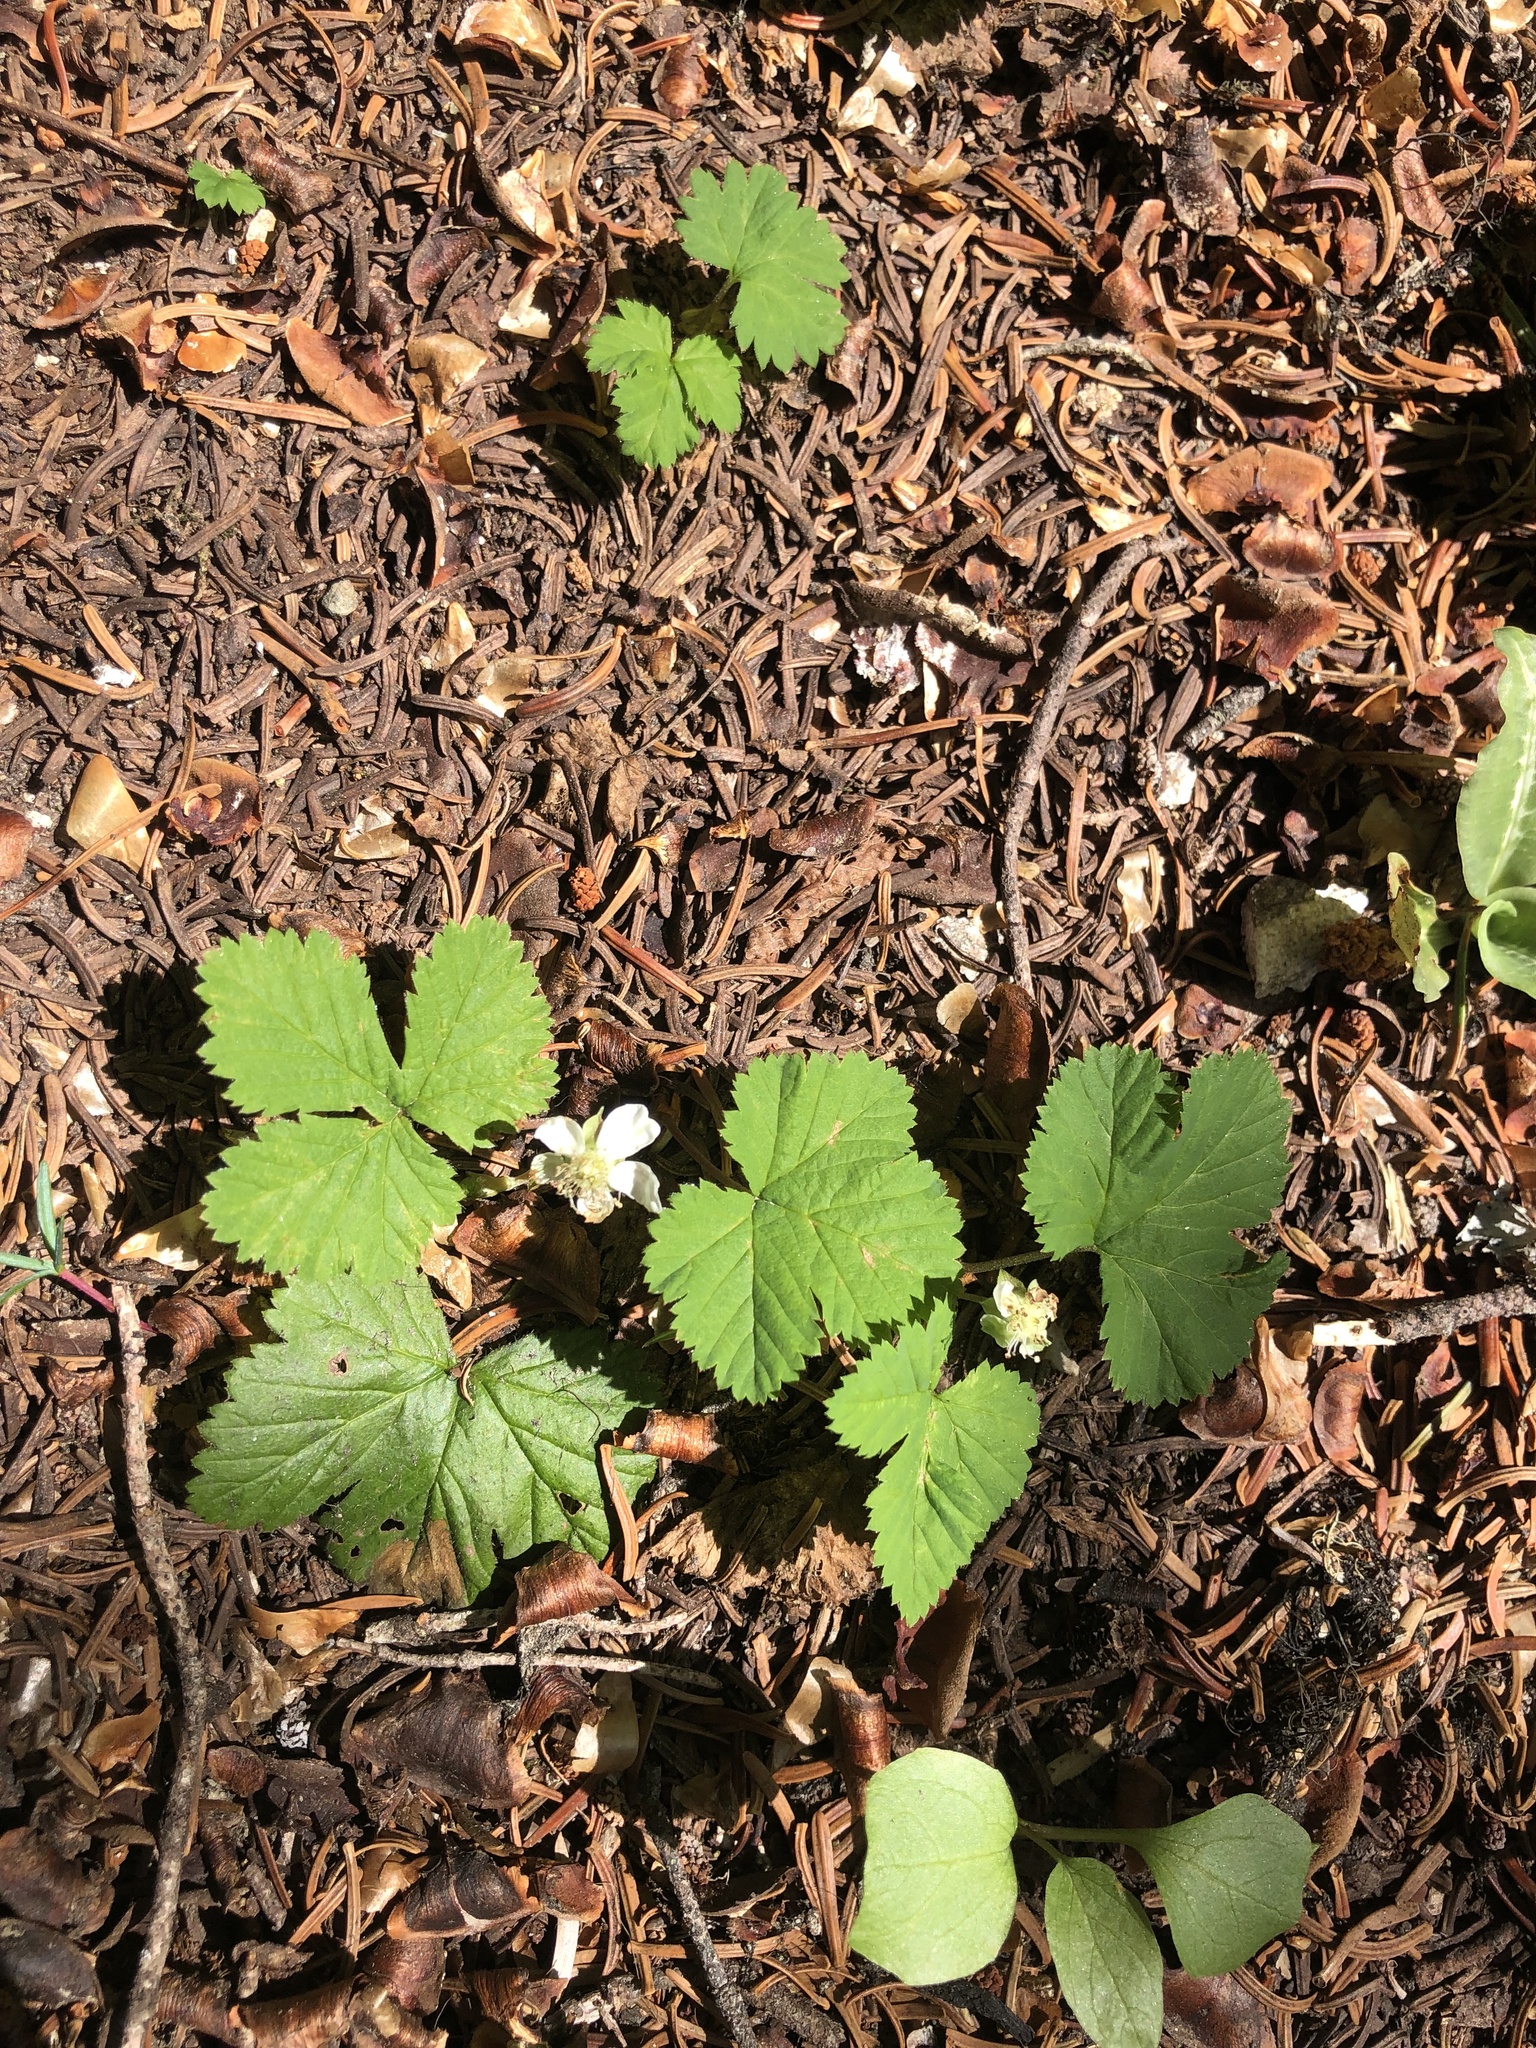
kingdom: Plantae
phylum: Tracheophyta
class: Magnoliopsida
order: Rosales
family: Rosaceae
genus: Rubus
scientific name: Rubus lasiococcus
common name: Dwarf bramble
